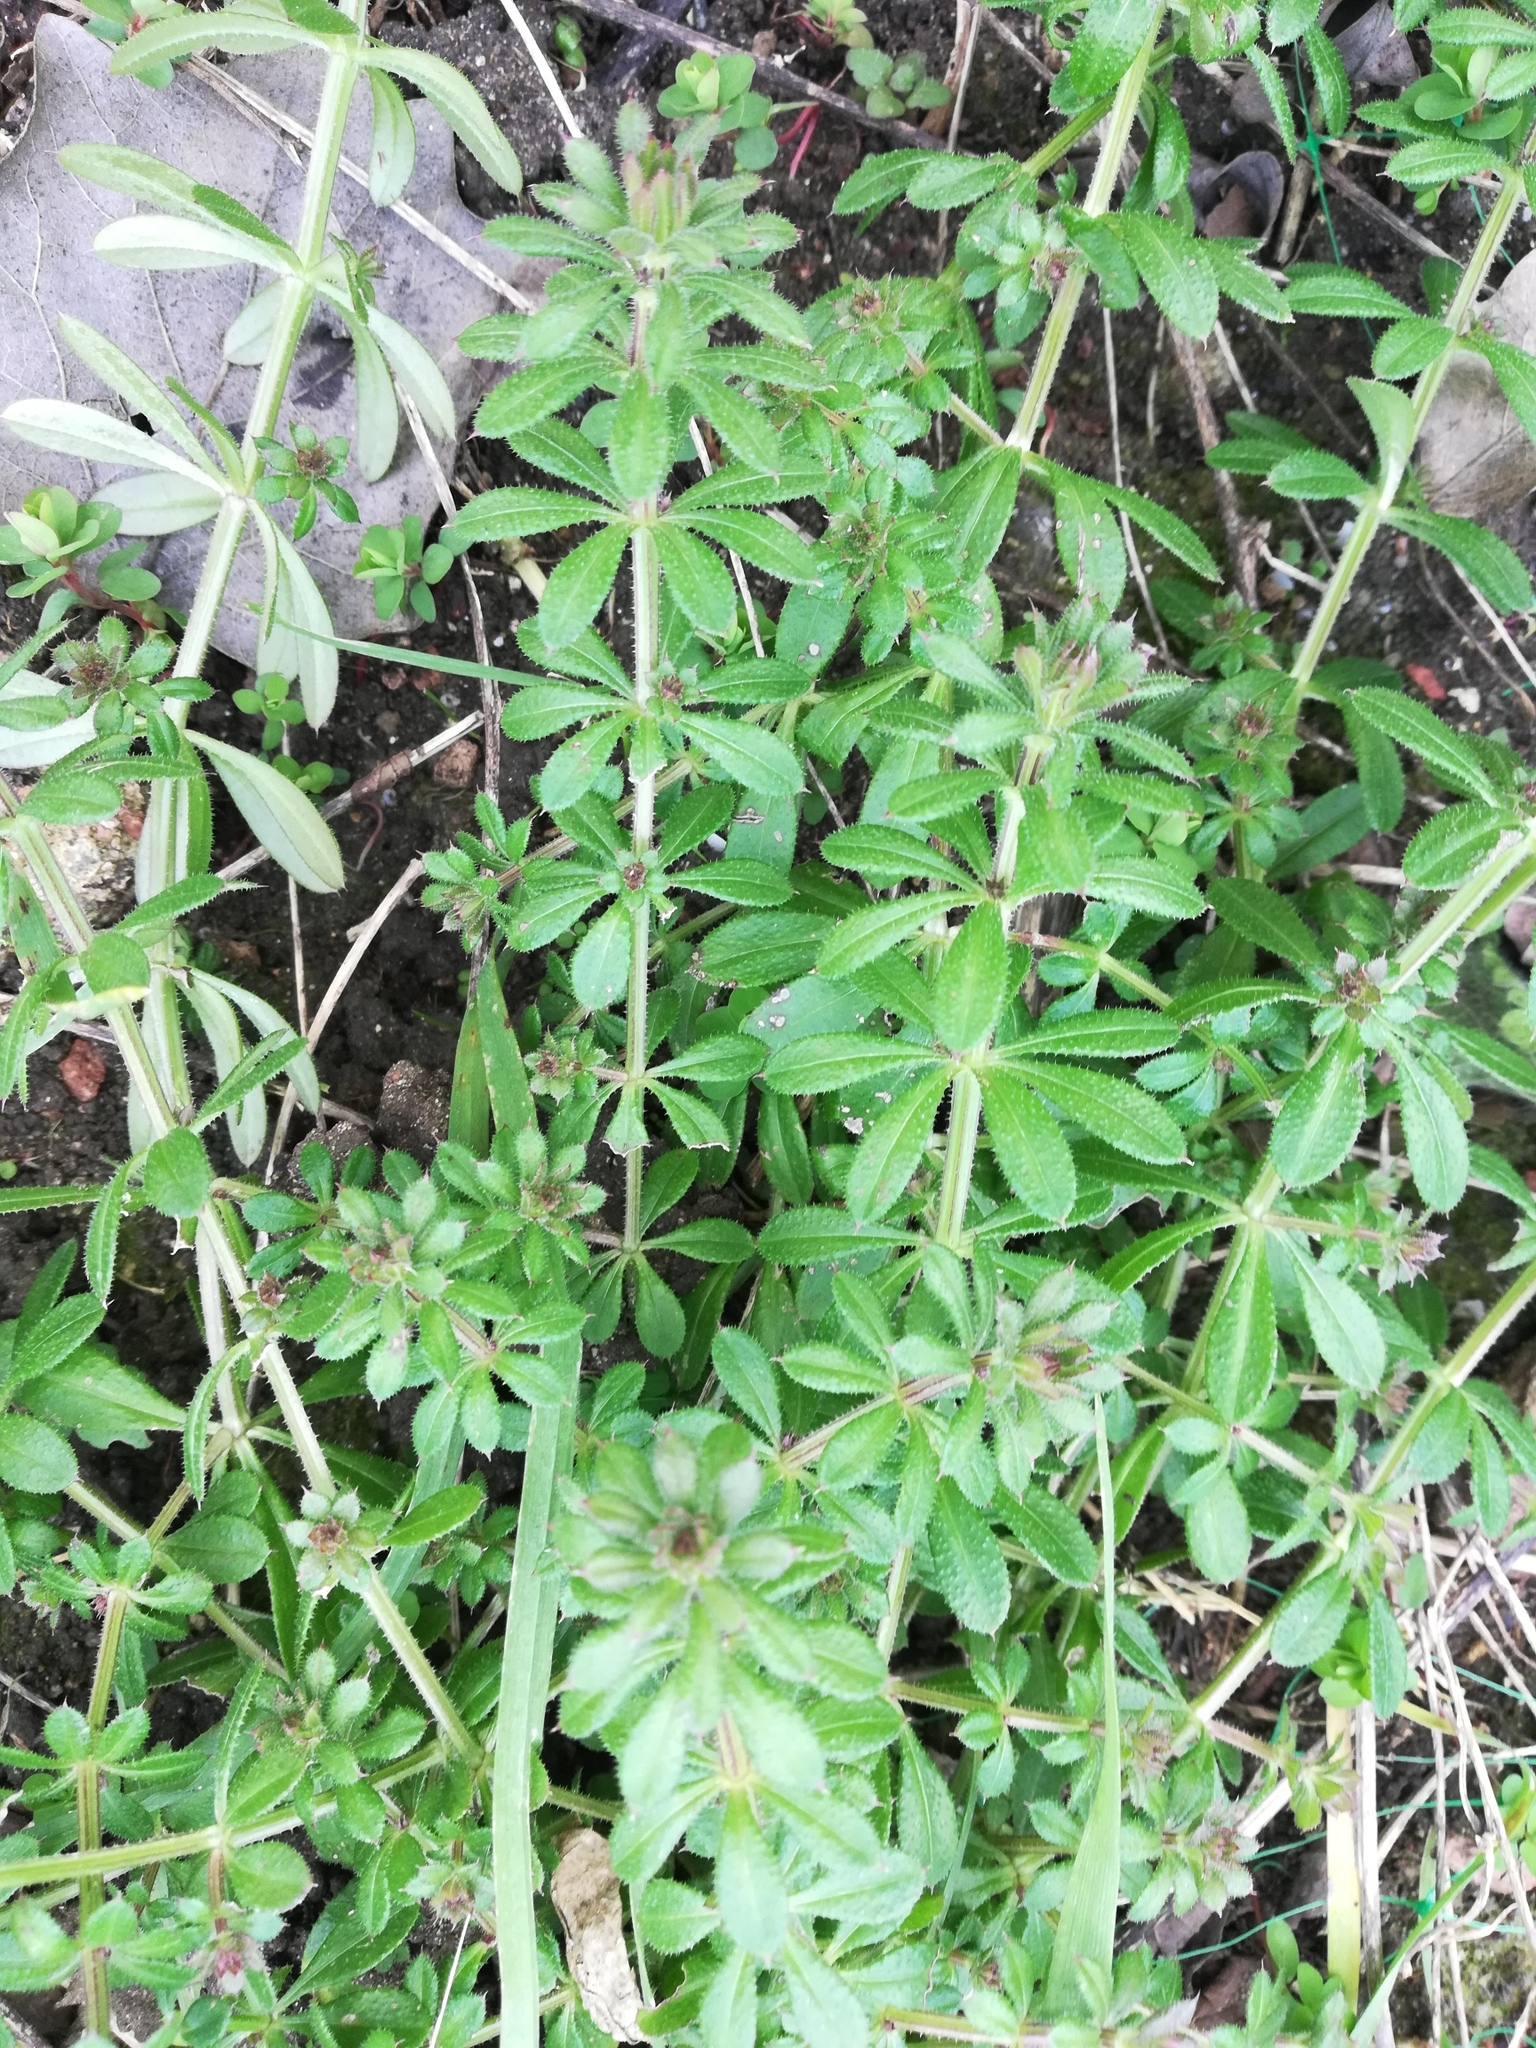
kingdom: Plantae
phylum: Tracheophyta
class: Magnoliopsida
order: Gentianales
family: Rubiaceae
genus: Galium
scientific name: Galium aparine
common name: Cleavers
